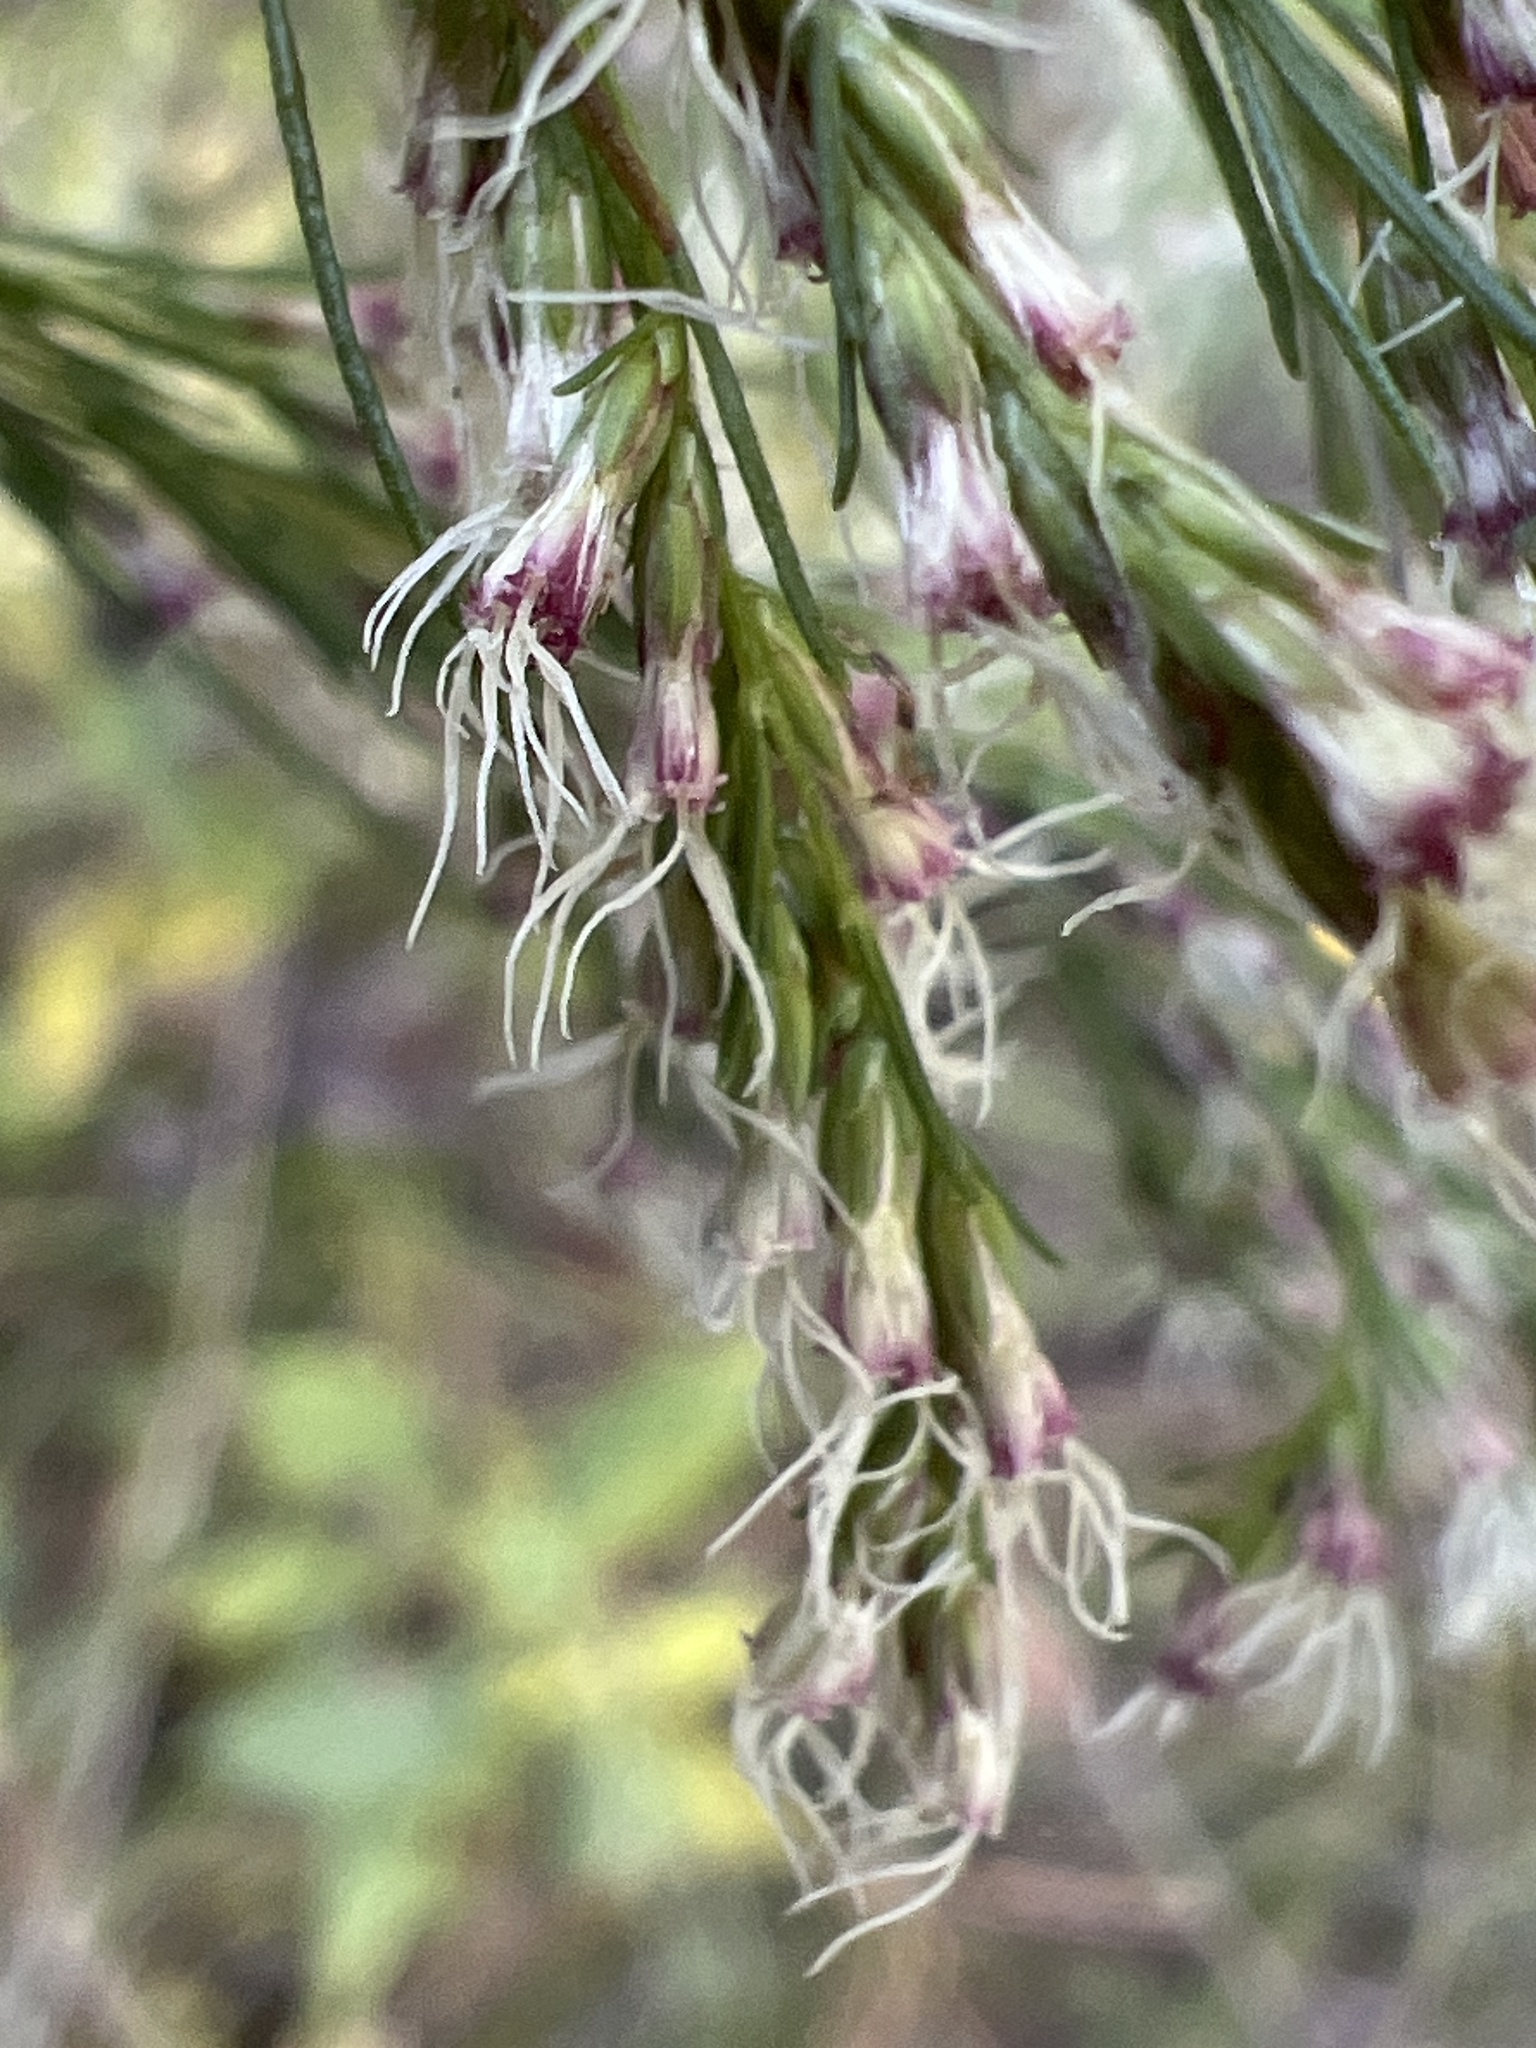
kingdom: Plantae
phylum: Tracheophyta
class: Magnoliopsida
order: Asterales
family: Asteraceae
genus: Eupatorium
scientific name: Eupatorium capillifolium
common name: Dog-fennel
